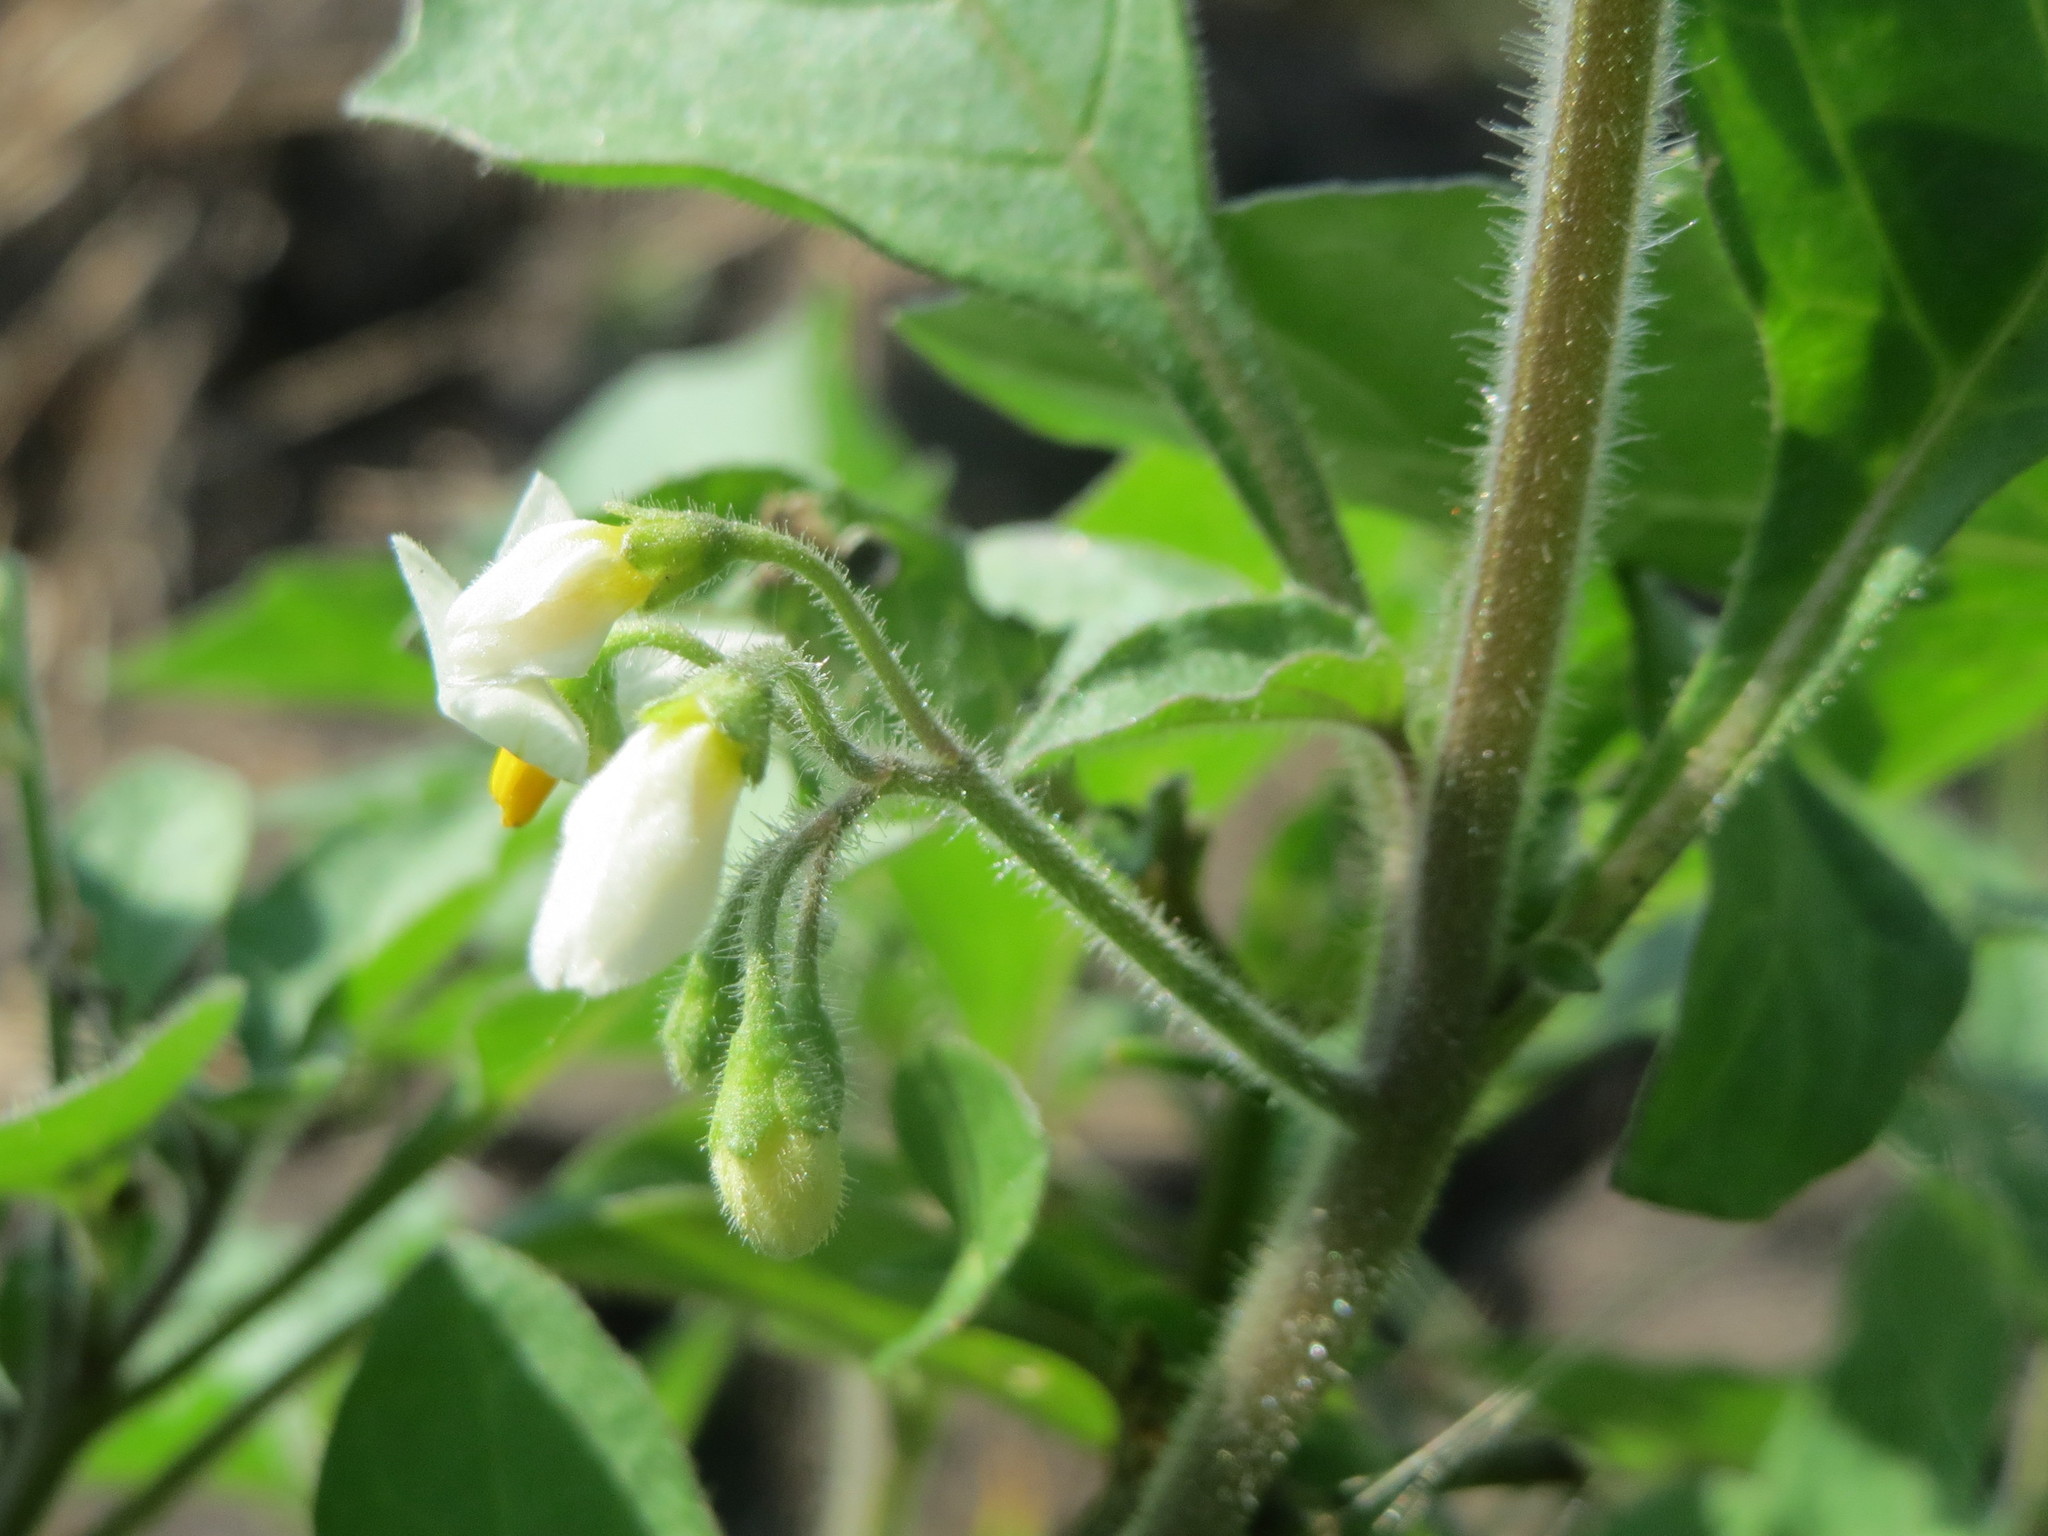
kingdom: Plantae
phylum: Tracheophyta
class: Magnoliopsida
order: Solanales
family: Solanaceae
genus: Solanum
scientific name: Solanum nigrum
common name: Black nightshade
